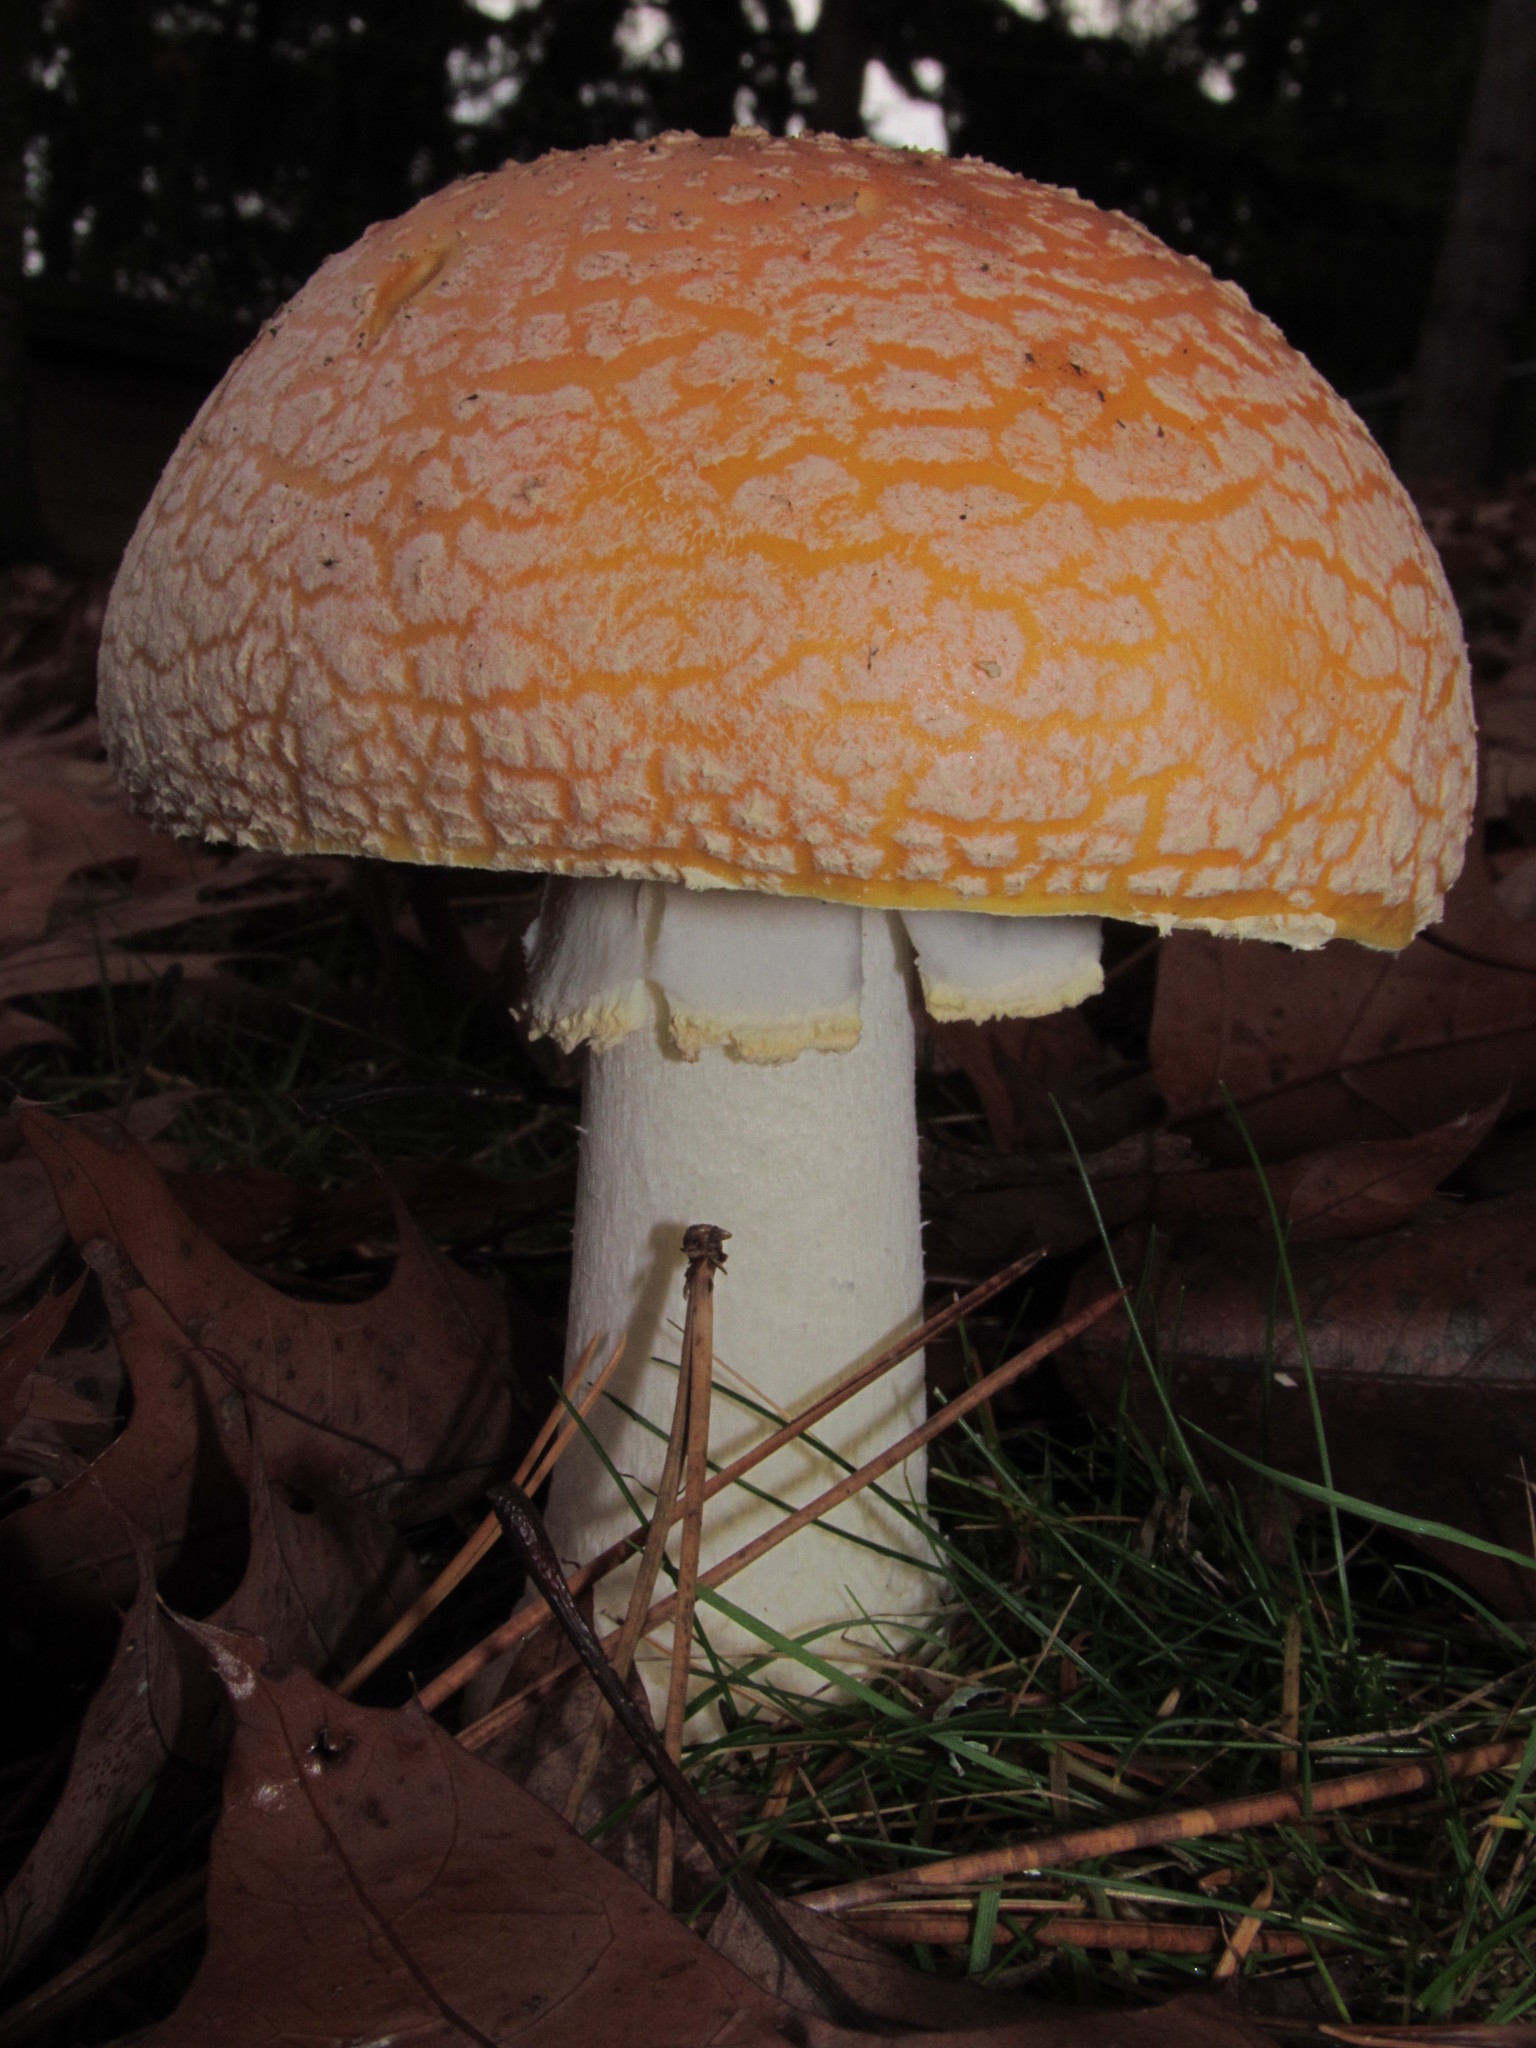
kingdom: Fungi
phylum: Basidiomycota
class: Agaricomycetes
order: Agaricales
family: Amanitaceae
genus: Amanita
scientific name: Amanita muscaria
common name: Fly agaric
